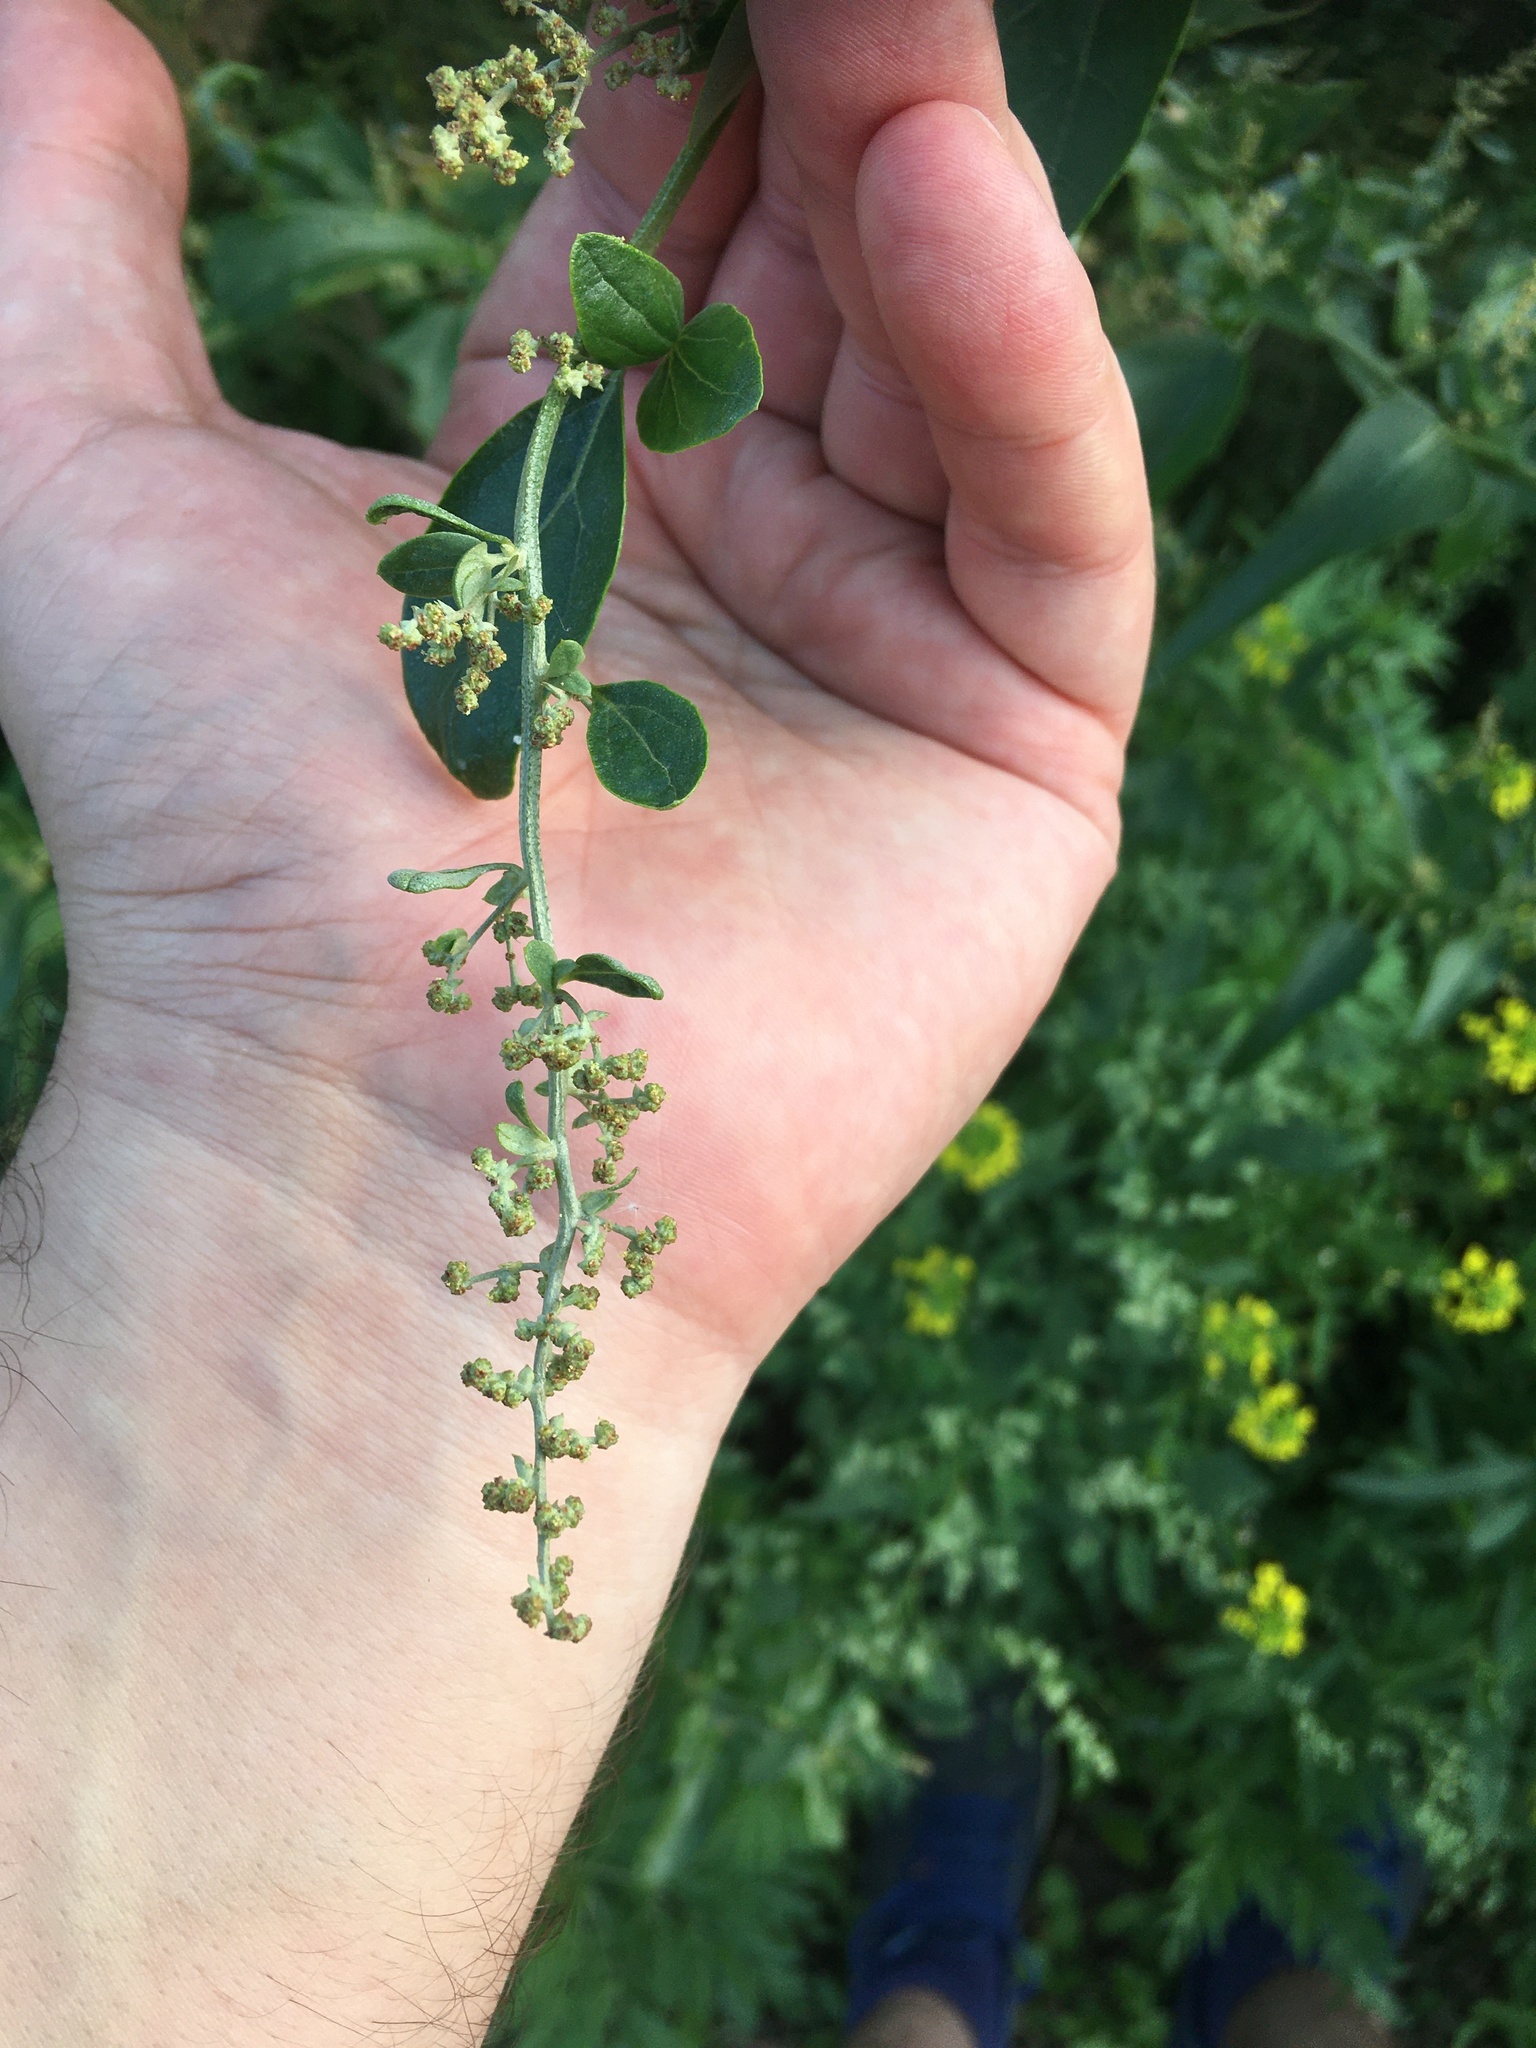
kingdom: Plantae
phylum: Tracheophyta
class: Magnoliopsida
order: Caryophyllales
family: Amaranthaceae
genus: Atriplex
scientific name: Atriplex sagittata
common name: Purple orache
